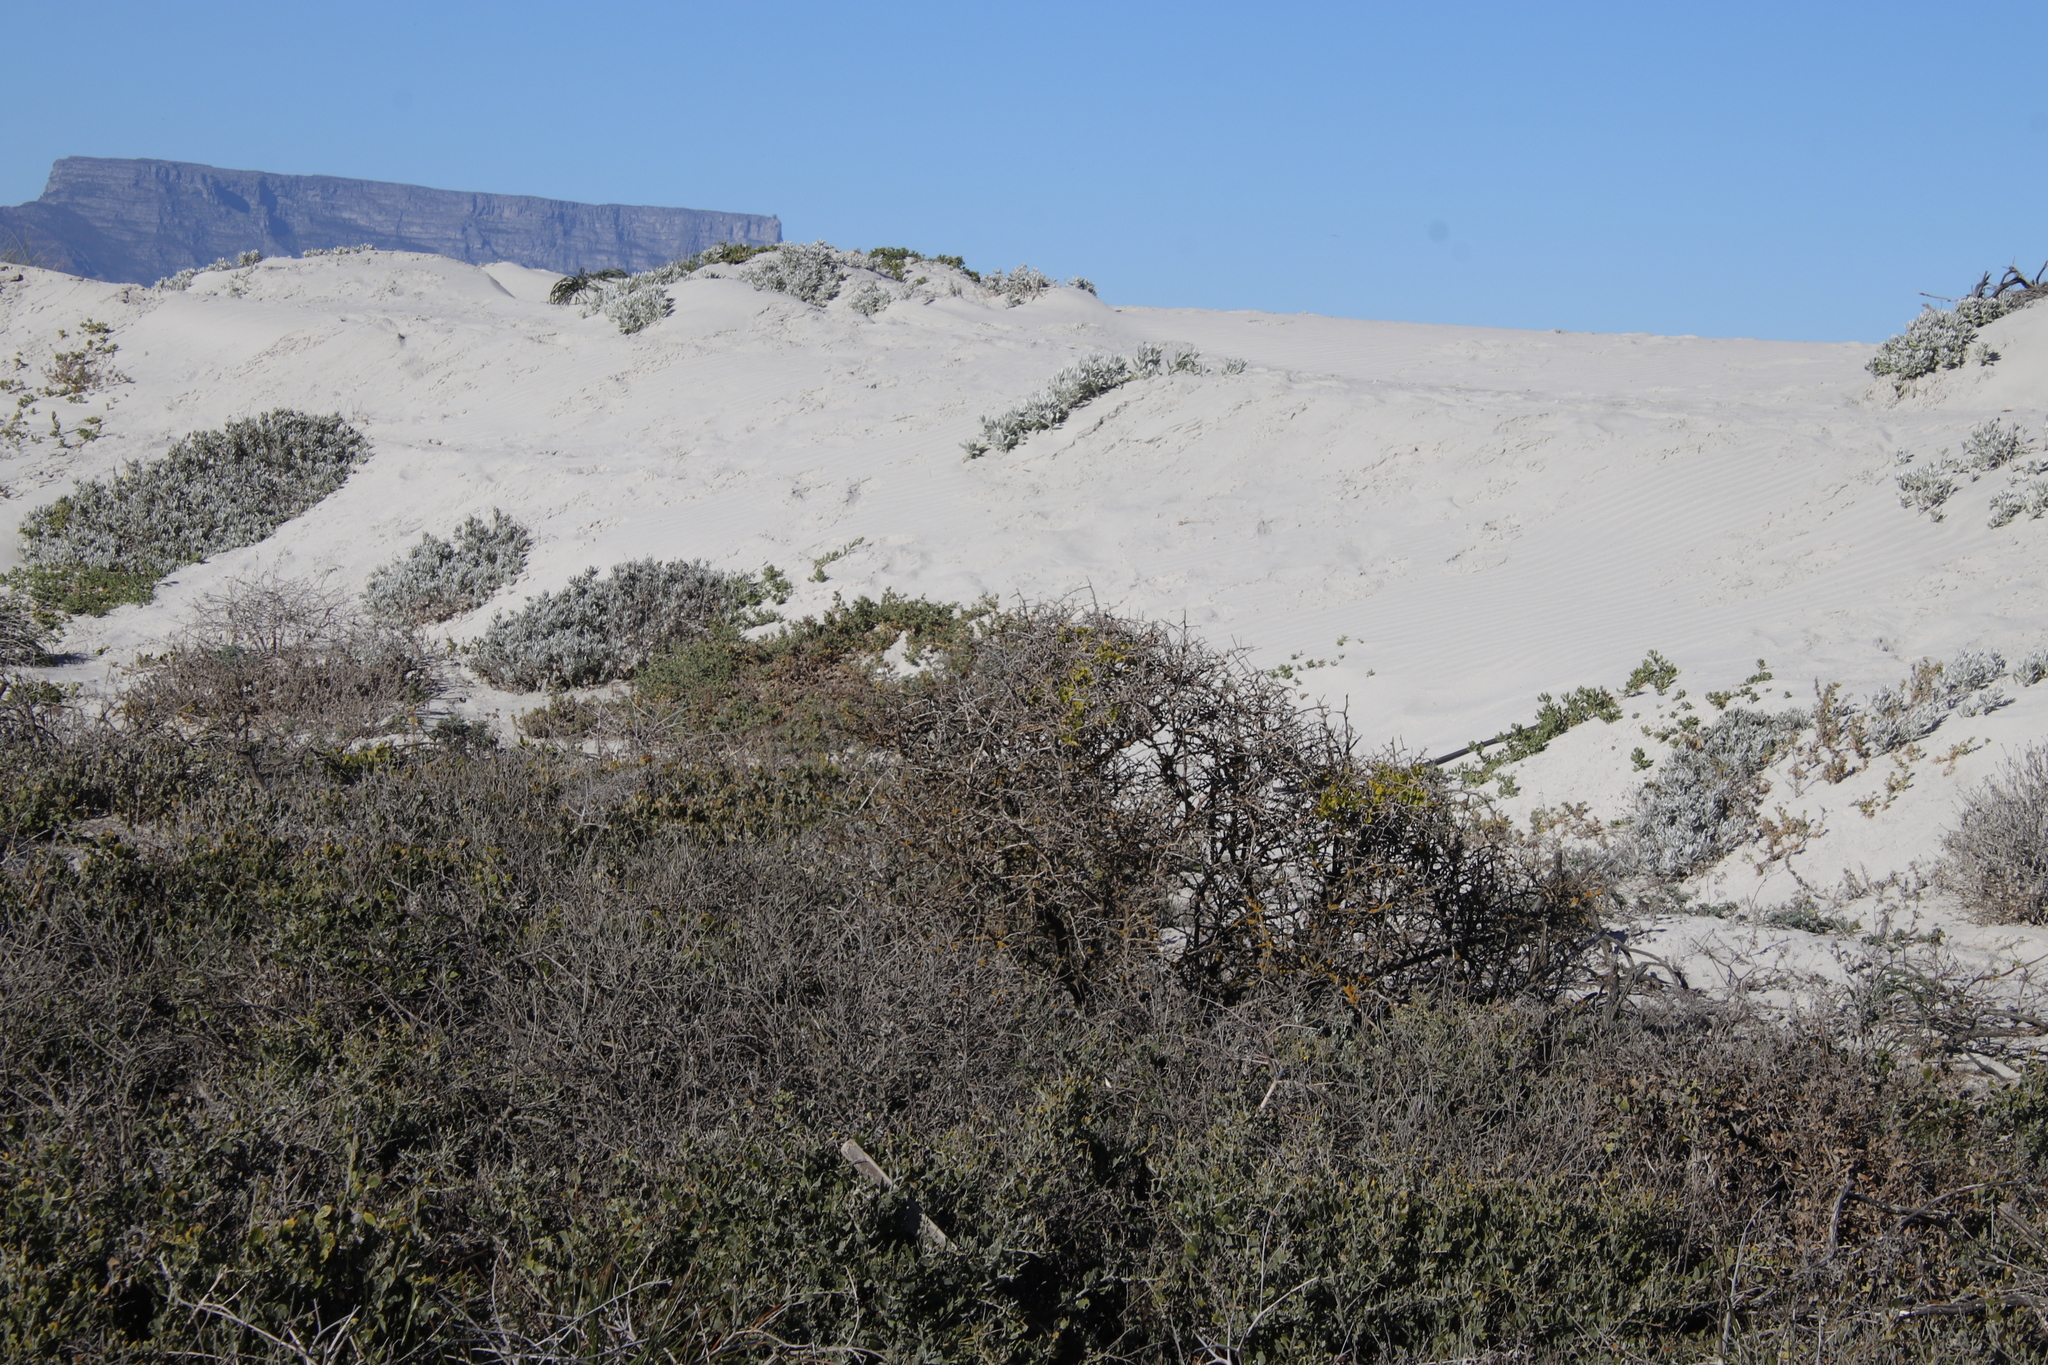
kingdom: Plantae
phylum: Tracheophyta
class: Magnoliopsida
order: Solanales
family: Solanaceae
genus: Lycium
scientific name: Lycium ferocissimum
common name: African boxthorn
